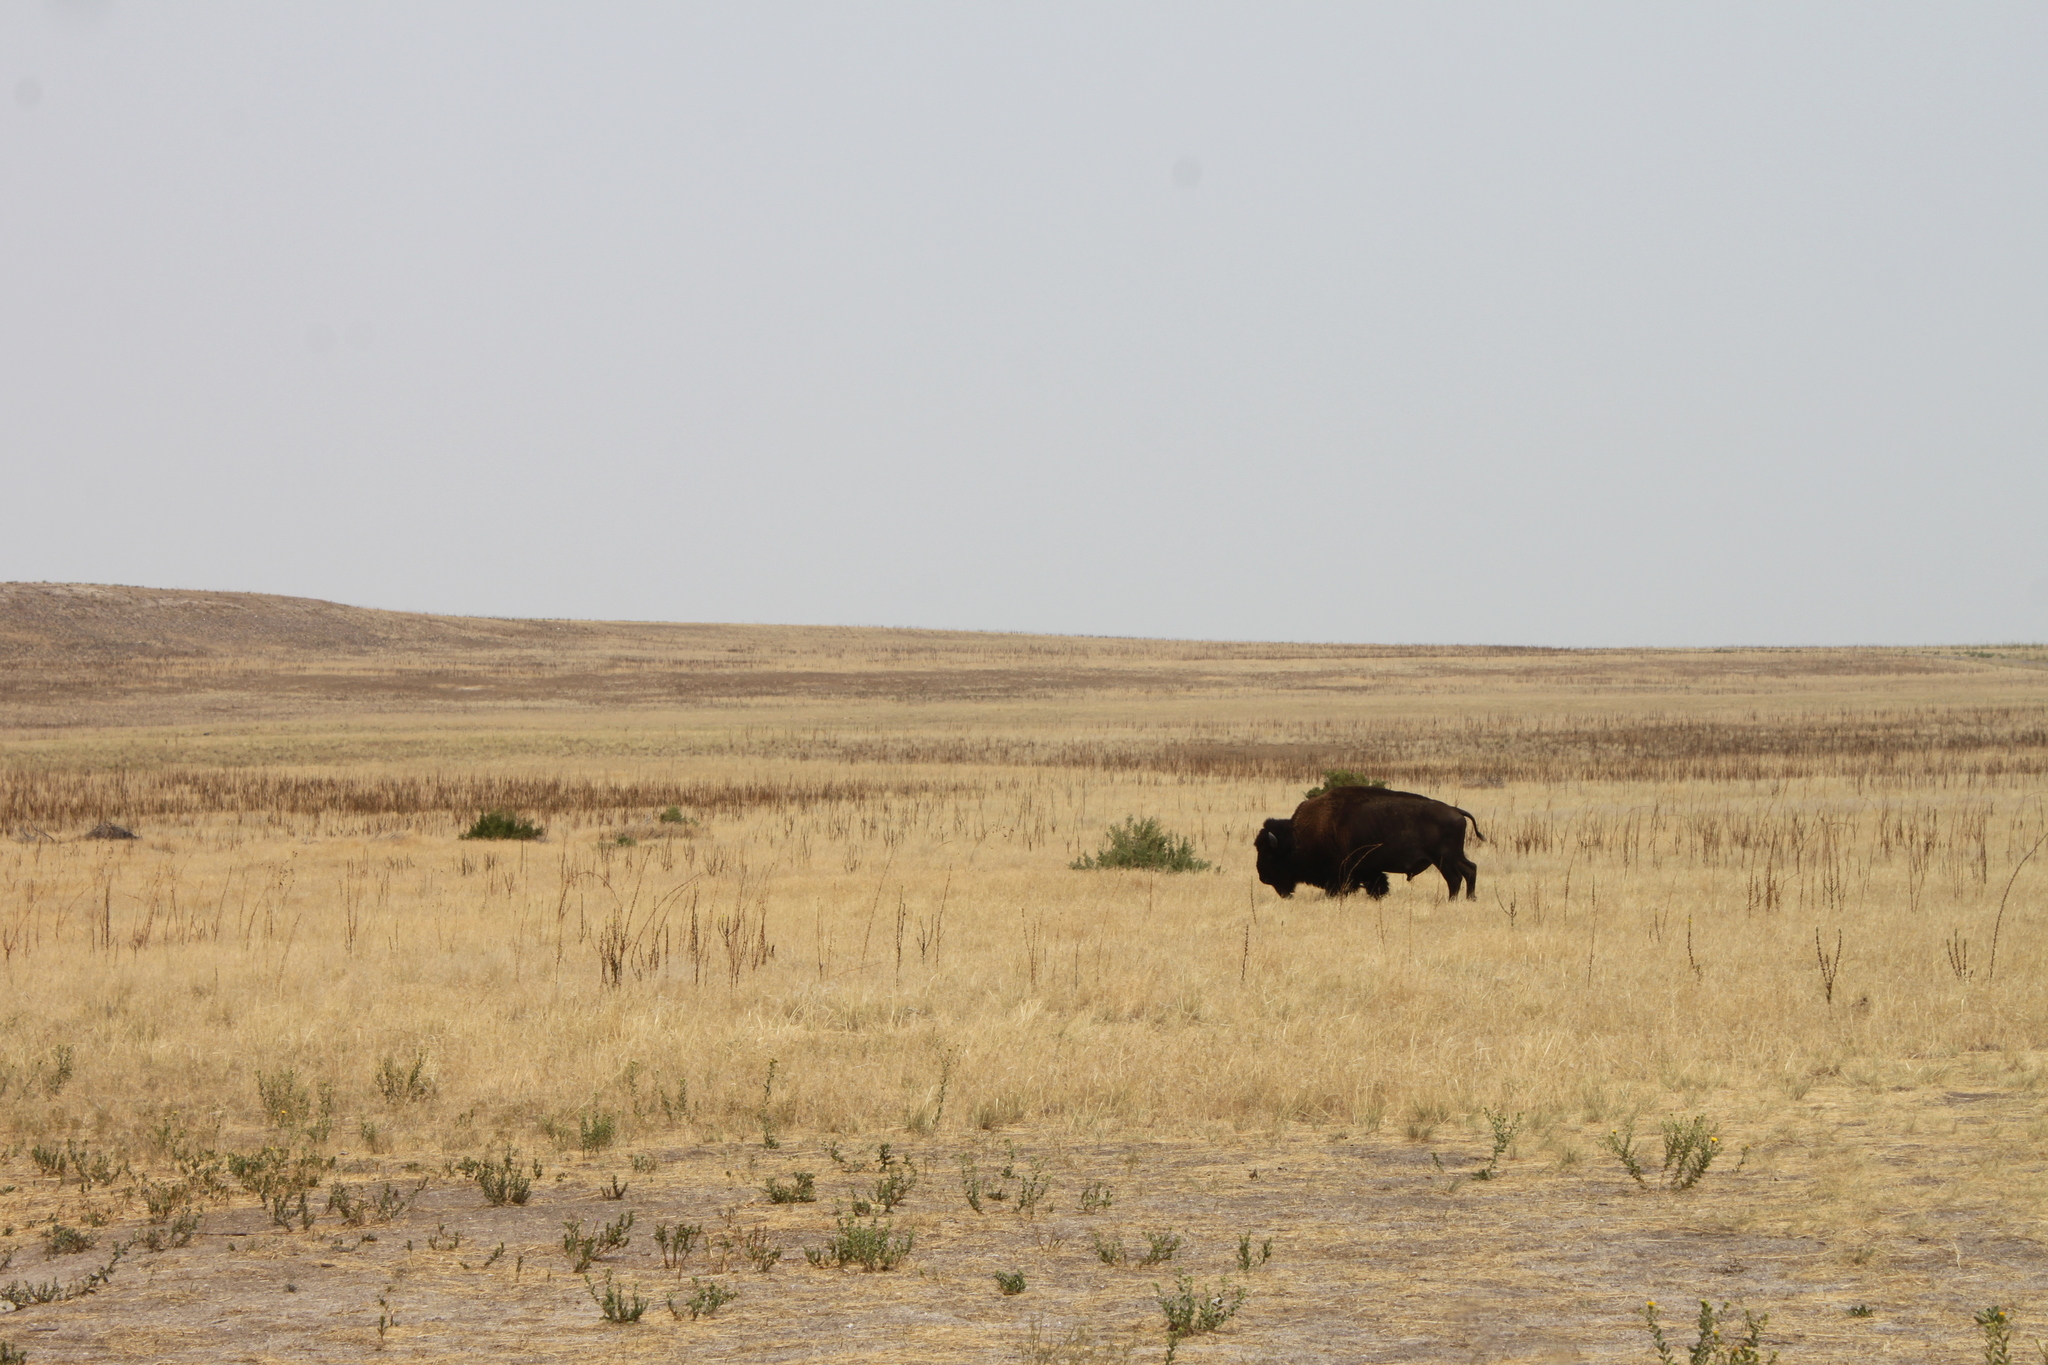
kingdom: Animalia
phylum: Chordata
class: Mammalia
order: Artiodactyla
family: Bovidae
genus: Bison
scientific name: Bison bison
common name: American bison
